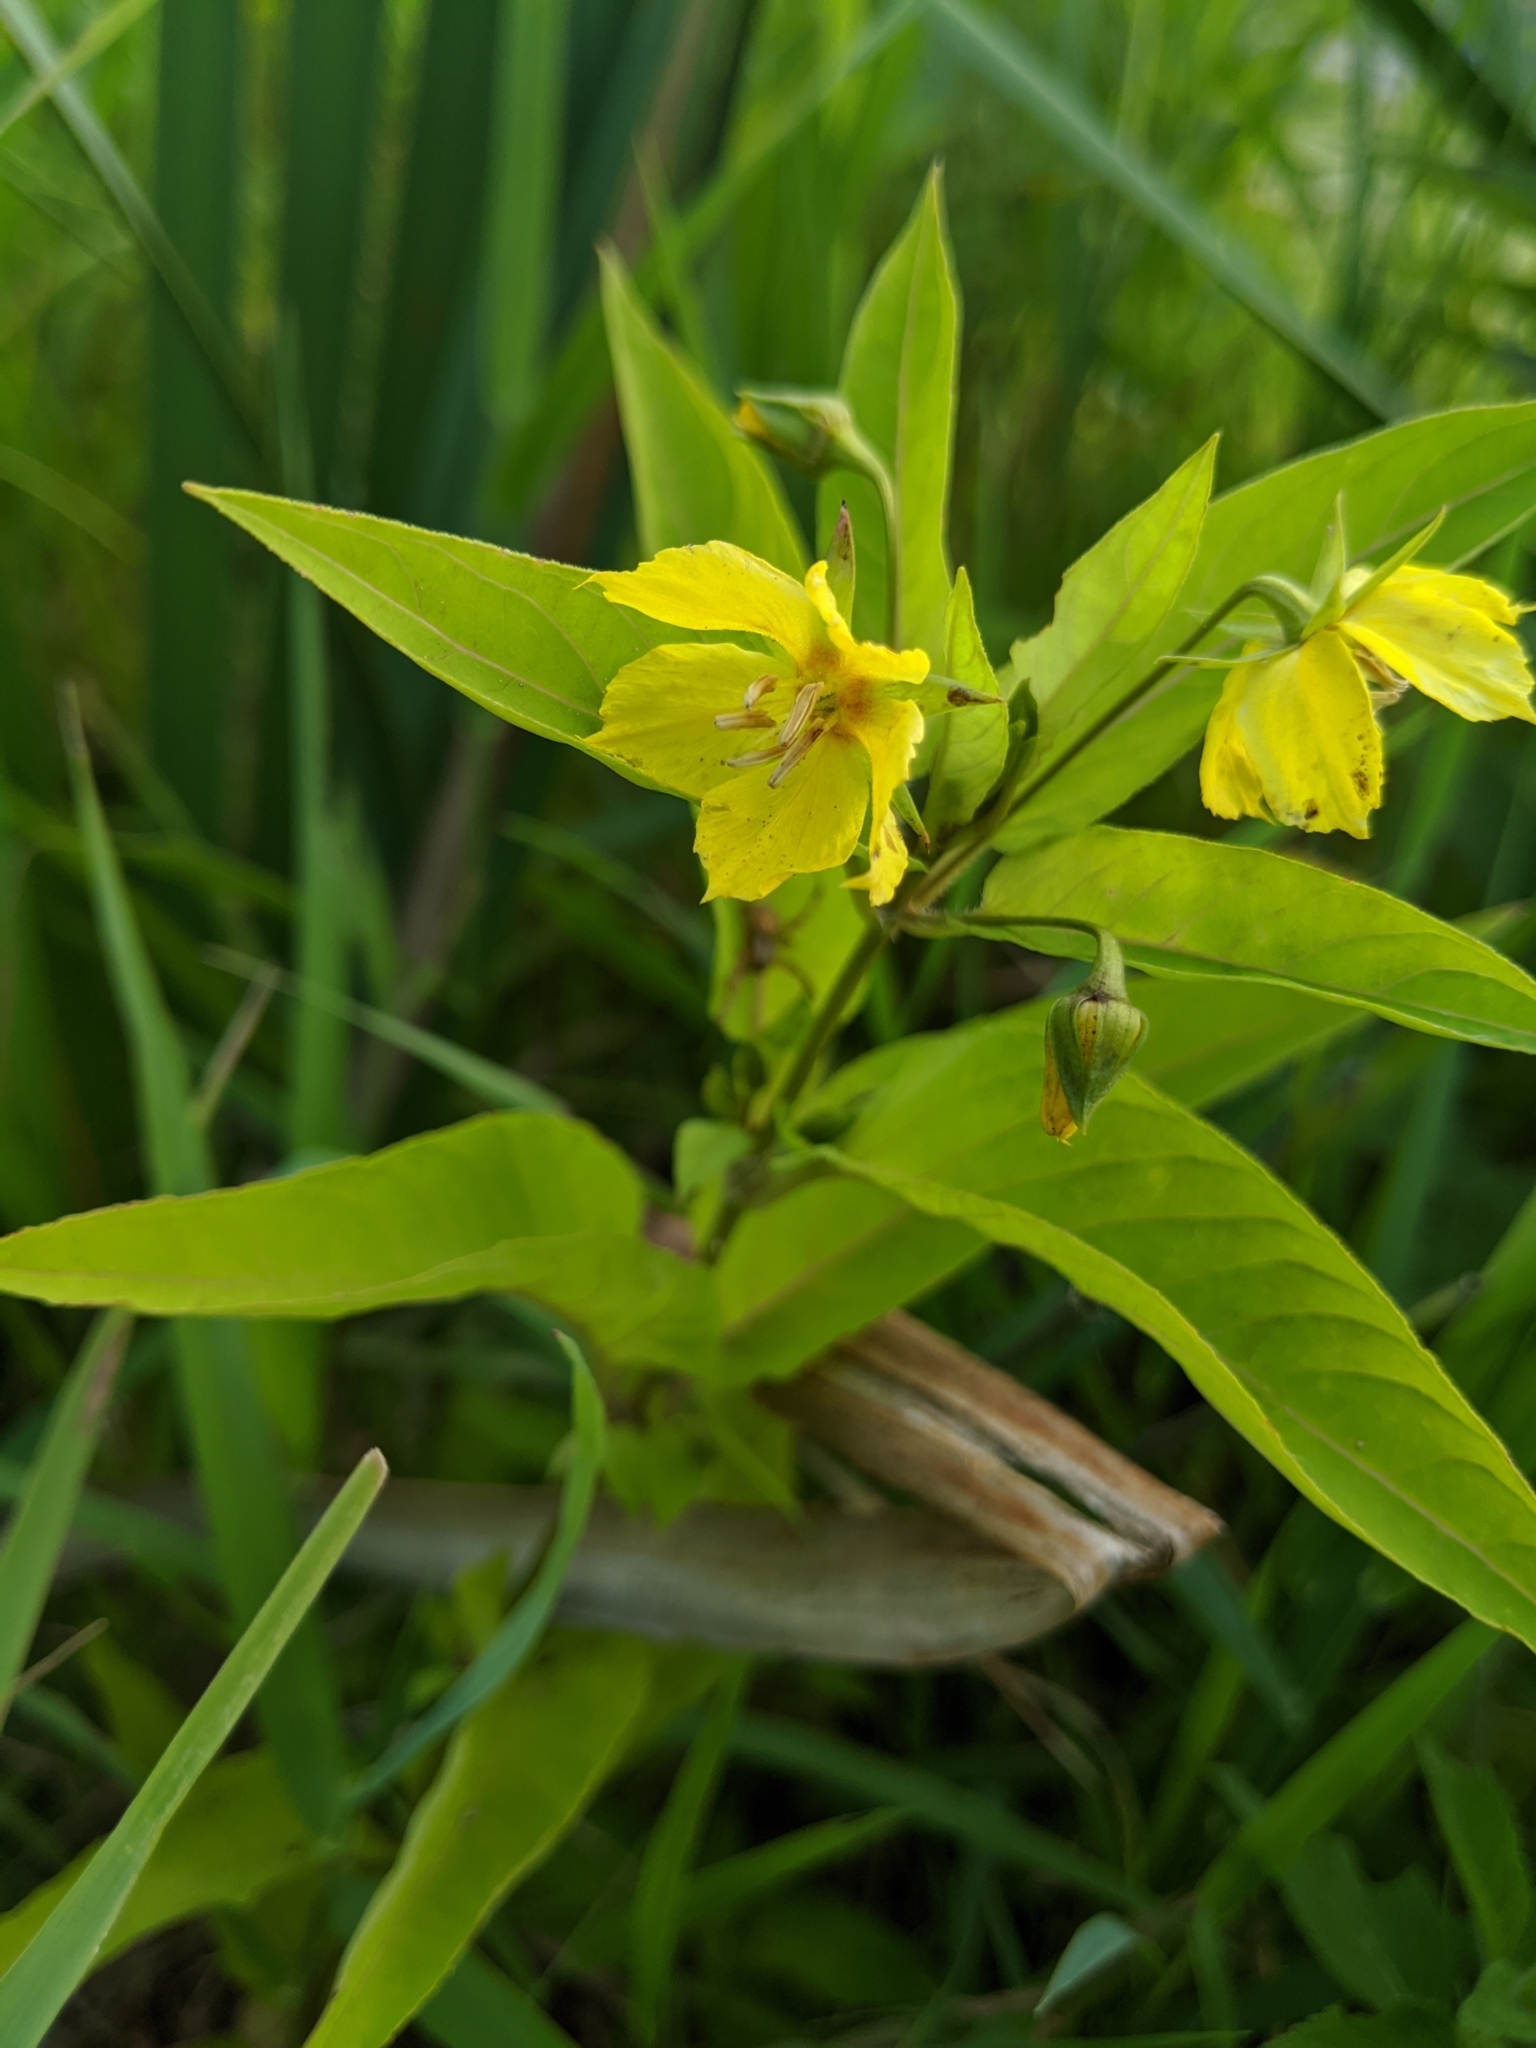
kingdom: Plantae
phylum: Tracheophyta
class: Magnoliopsida
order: Ericales
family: Primulaceae
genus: Lysimachia
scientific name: Lysimachia ciliata
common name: Fringed loosestrife
